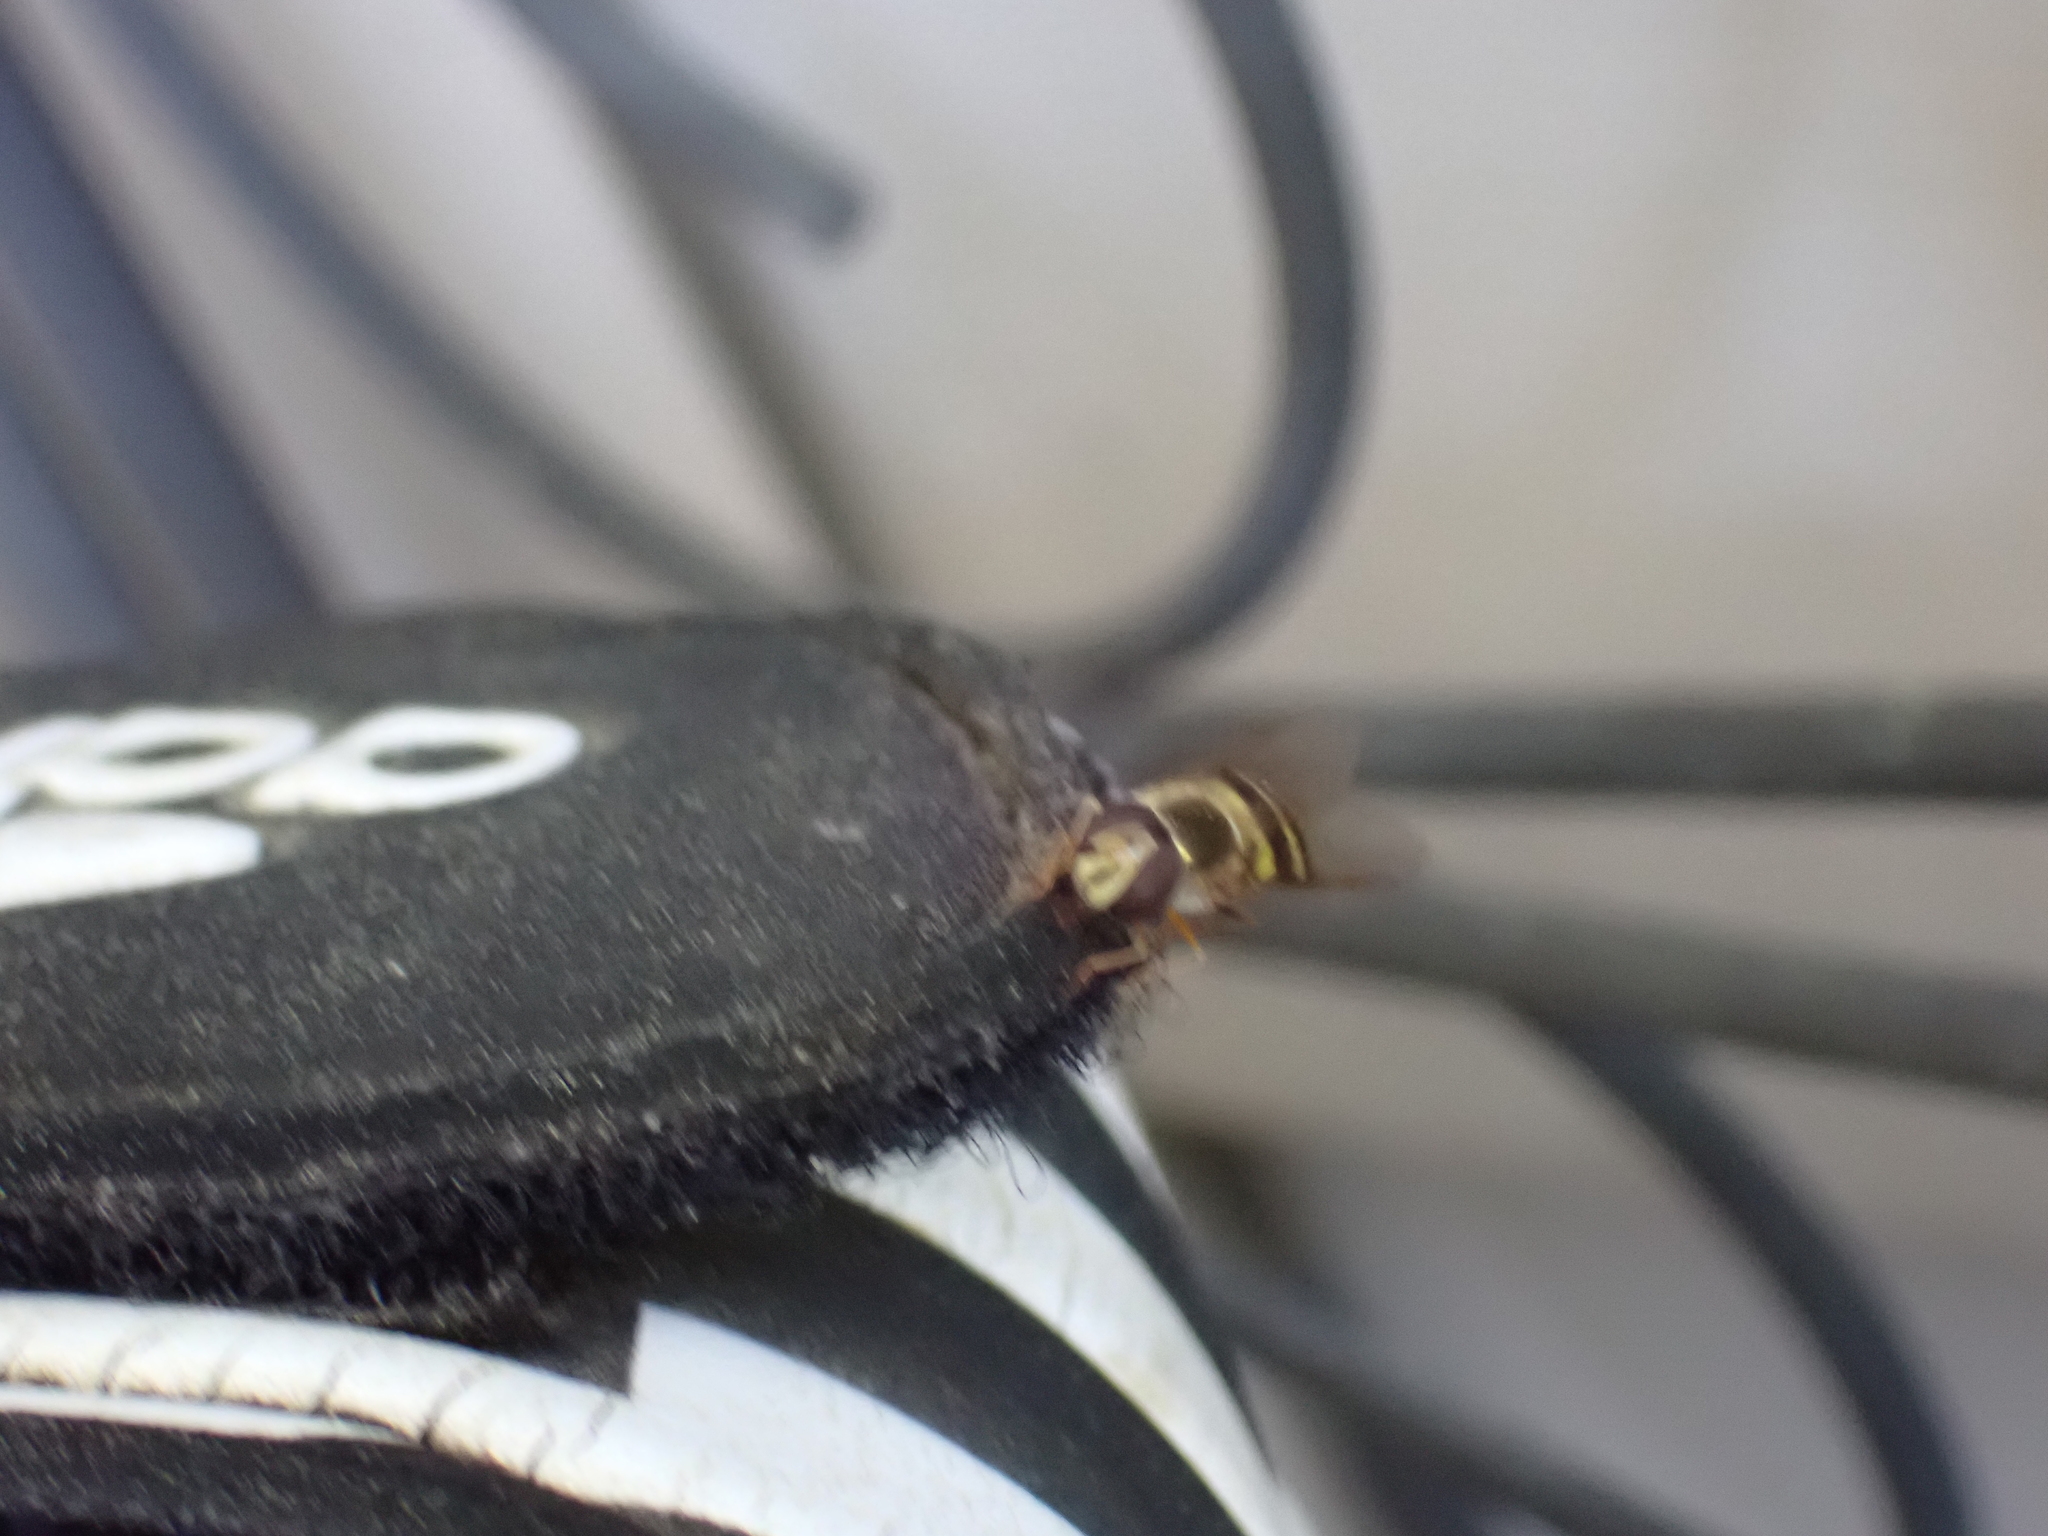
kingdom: Animalia
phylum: Arthropoda
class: Insecta
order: Diptera
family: Syrphidae
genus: Eupeodes
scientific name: Eupeodes
